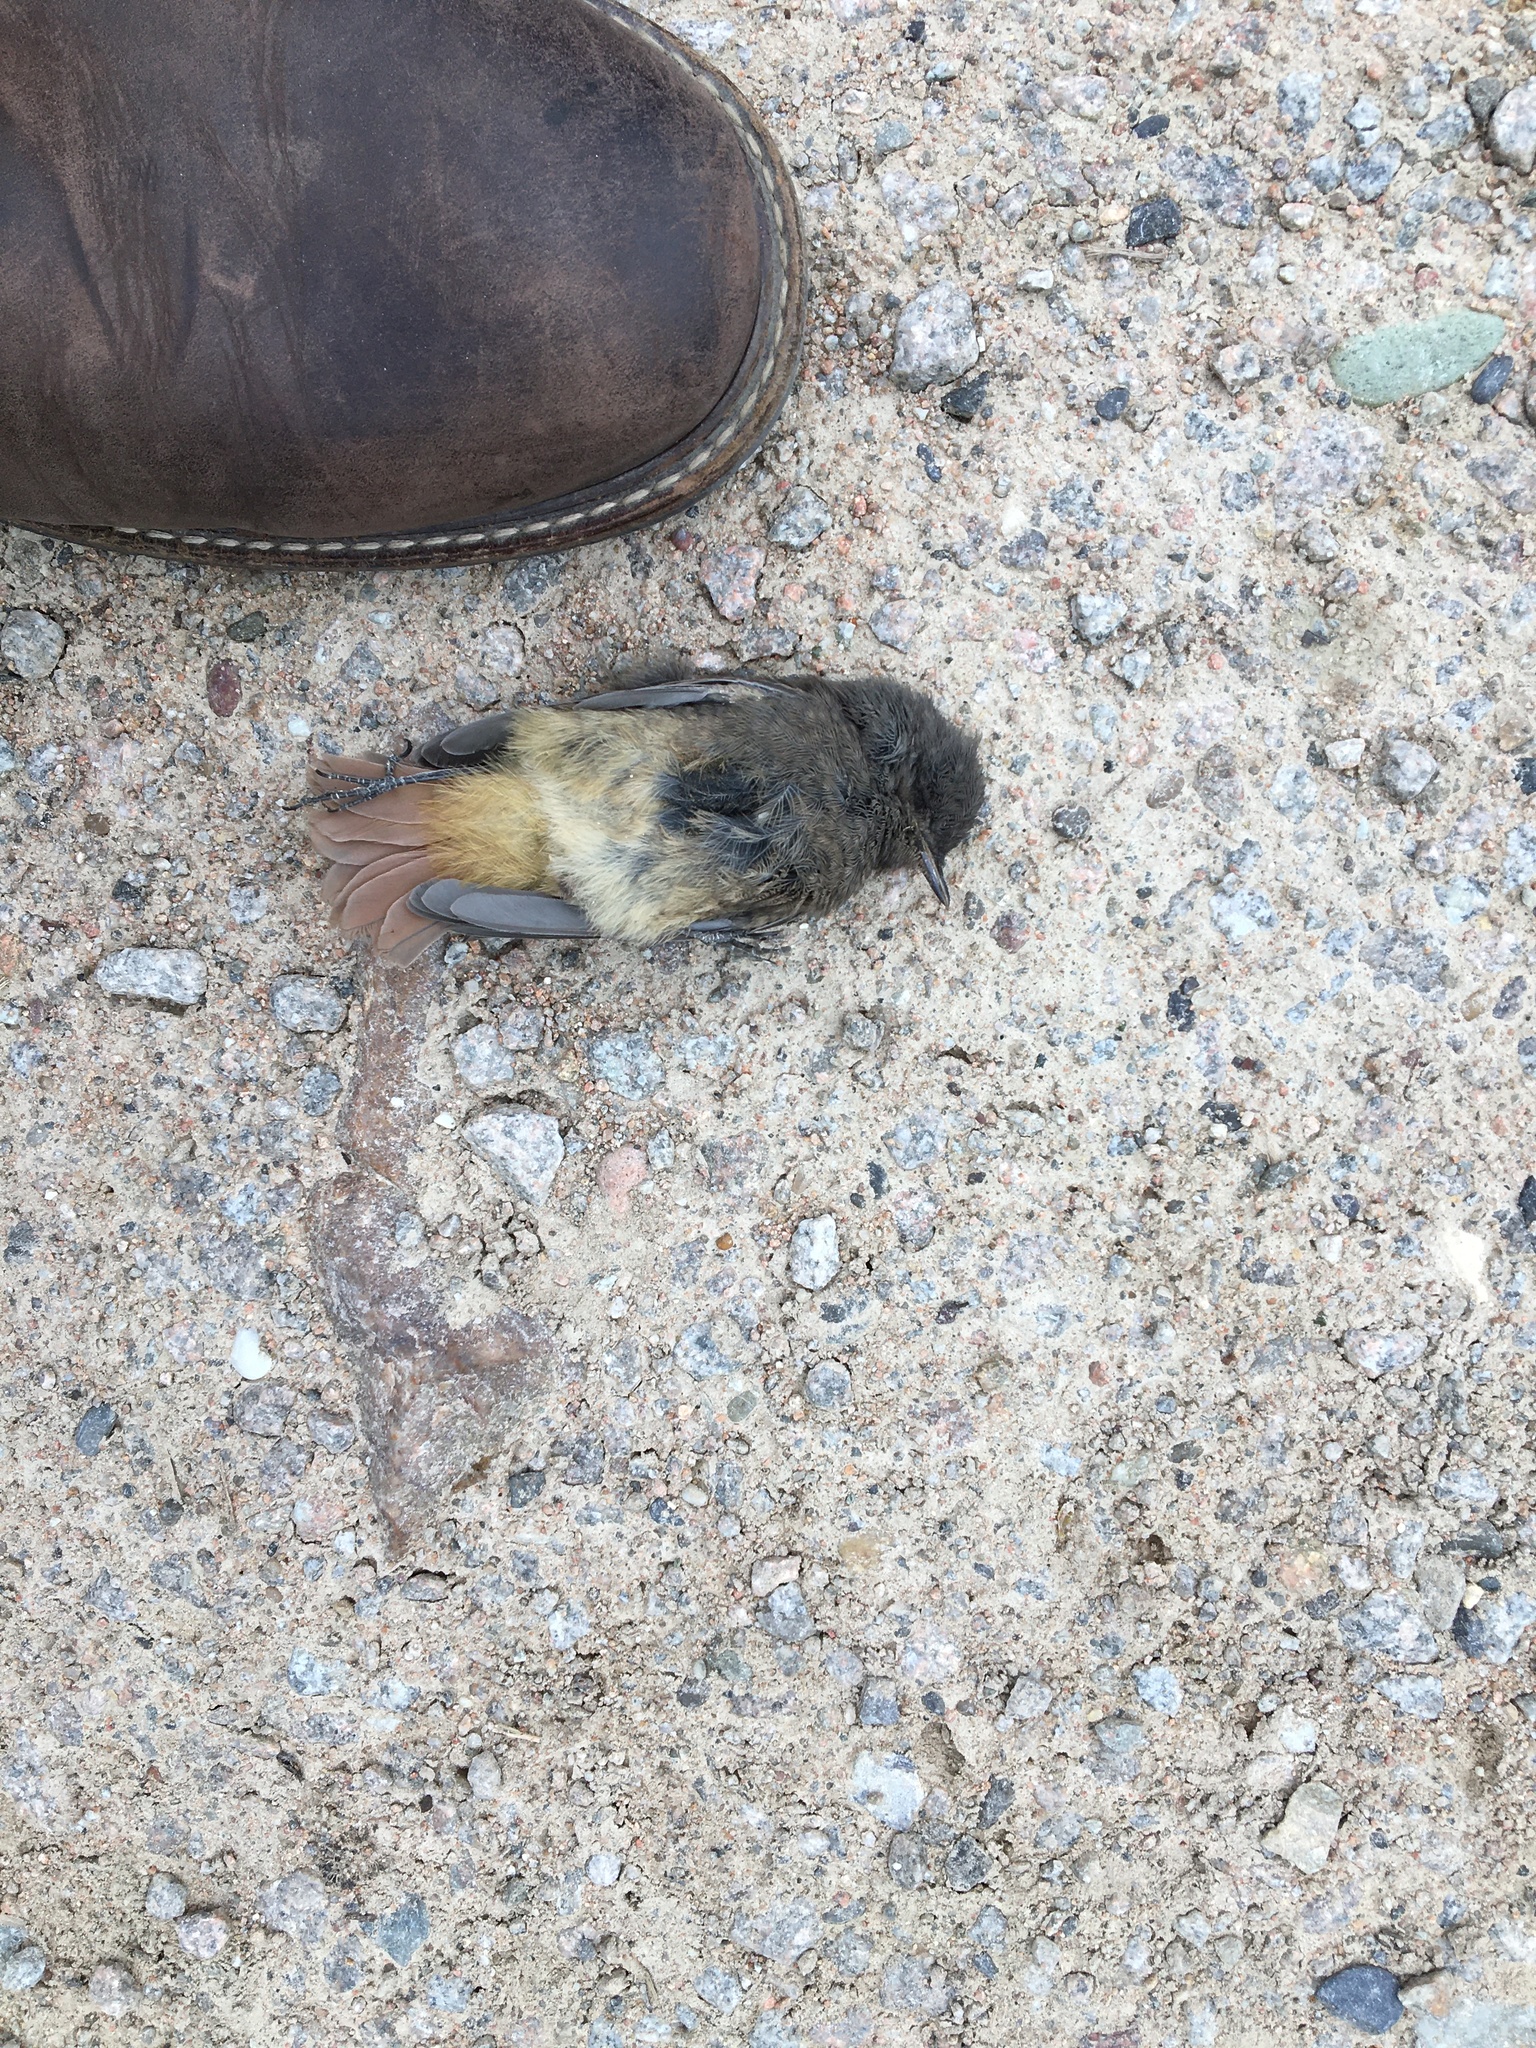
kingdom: Animalia
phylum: Chordata
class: Aves
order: Passeriformes
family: Muscicapidae
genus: Phoenicurus
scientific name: Phoenicurus ochruros
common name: Black redstart
